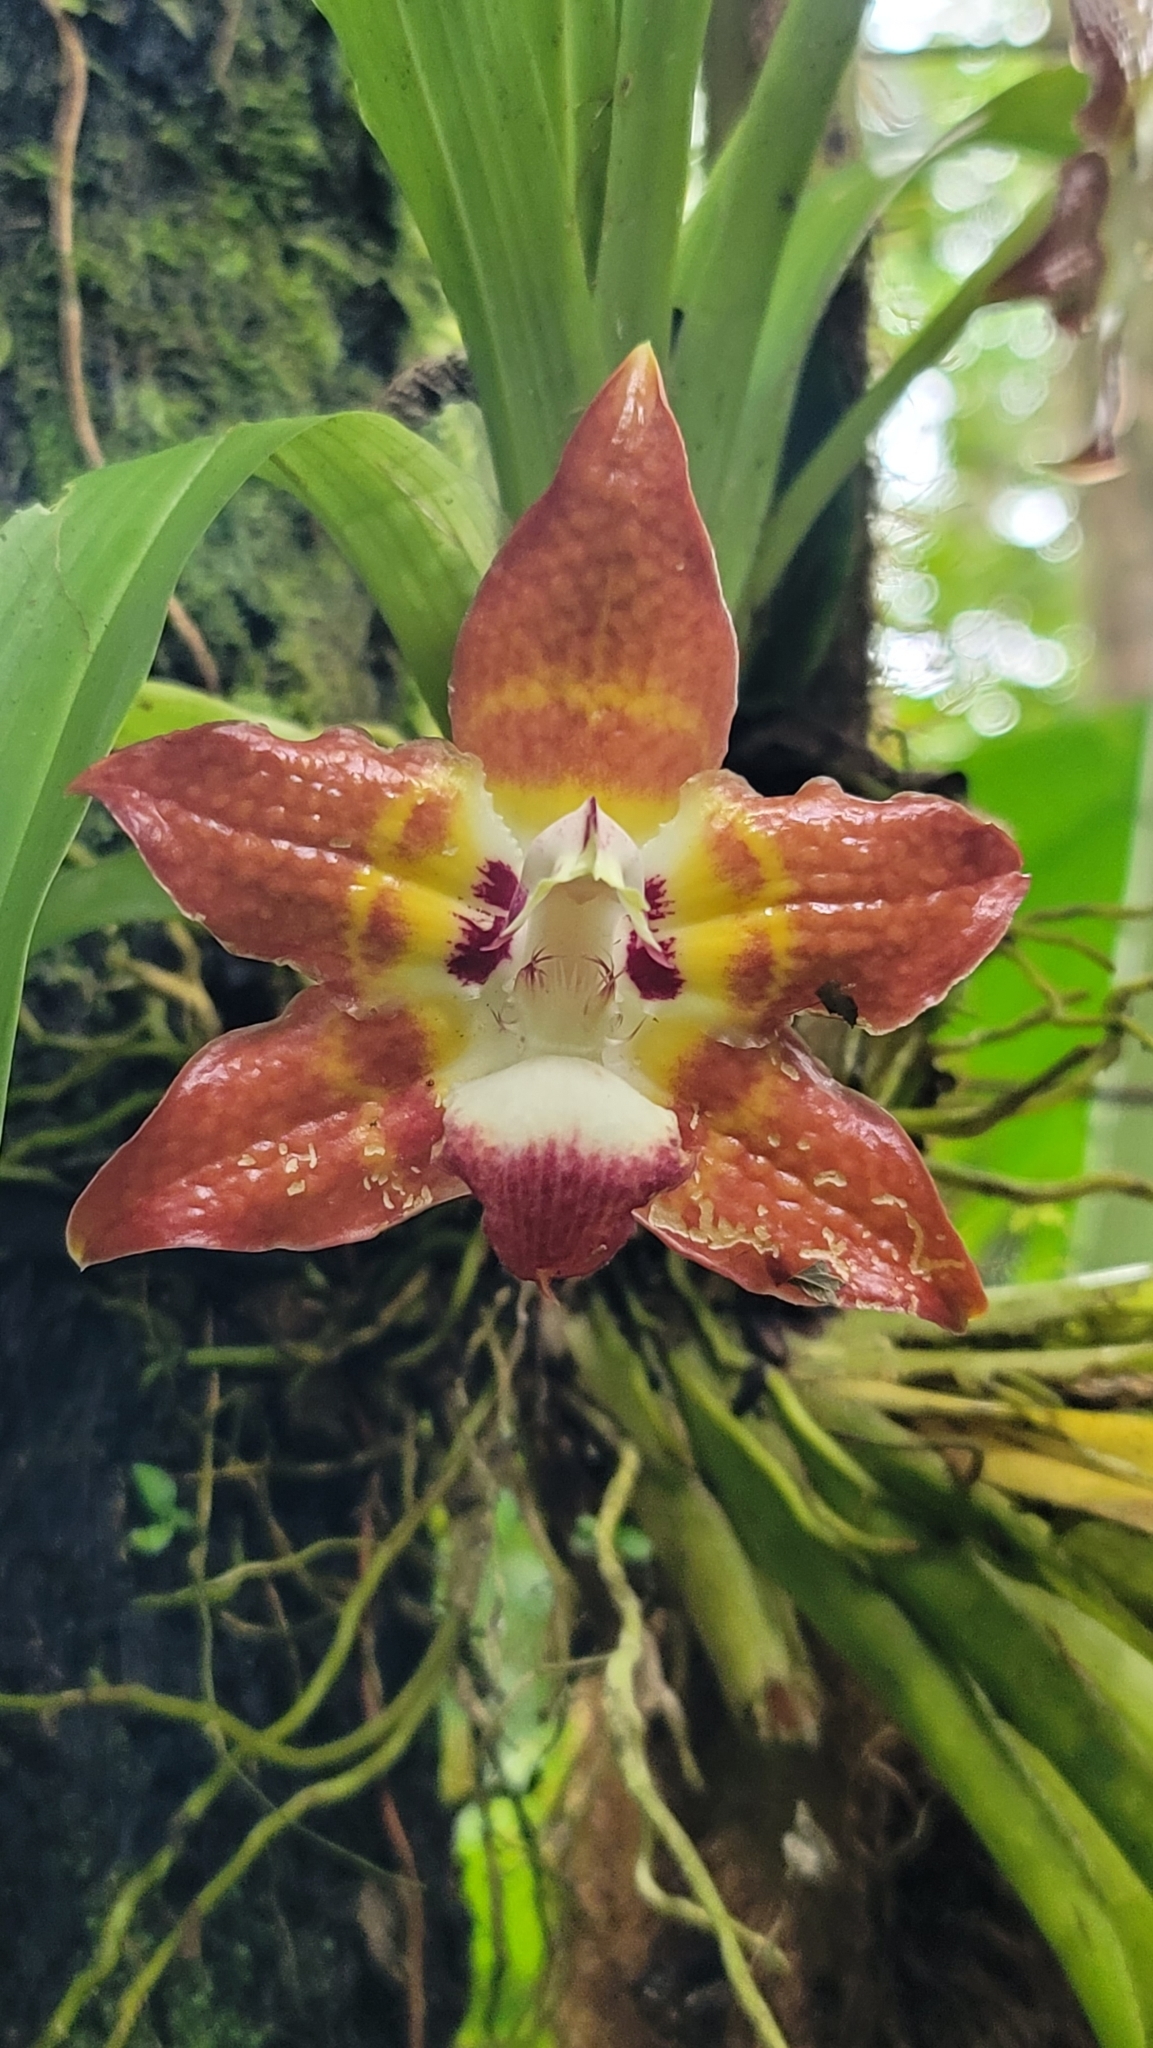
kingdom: Plantae
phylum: Tracheophyta
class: Liliopsida
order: Asparagales
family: Orchidaceae
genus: Huntleya
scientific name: Huntleya burtii
